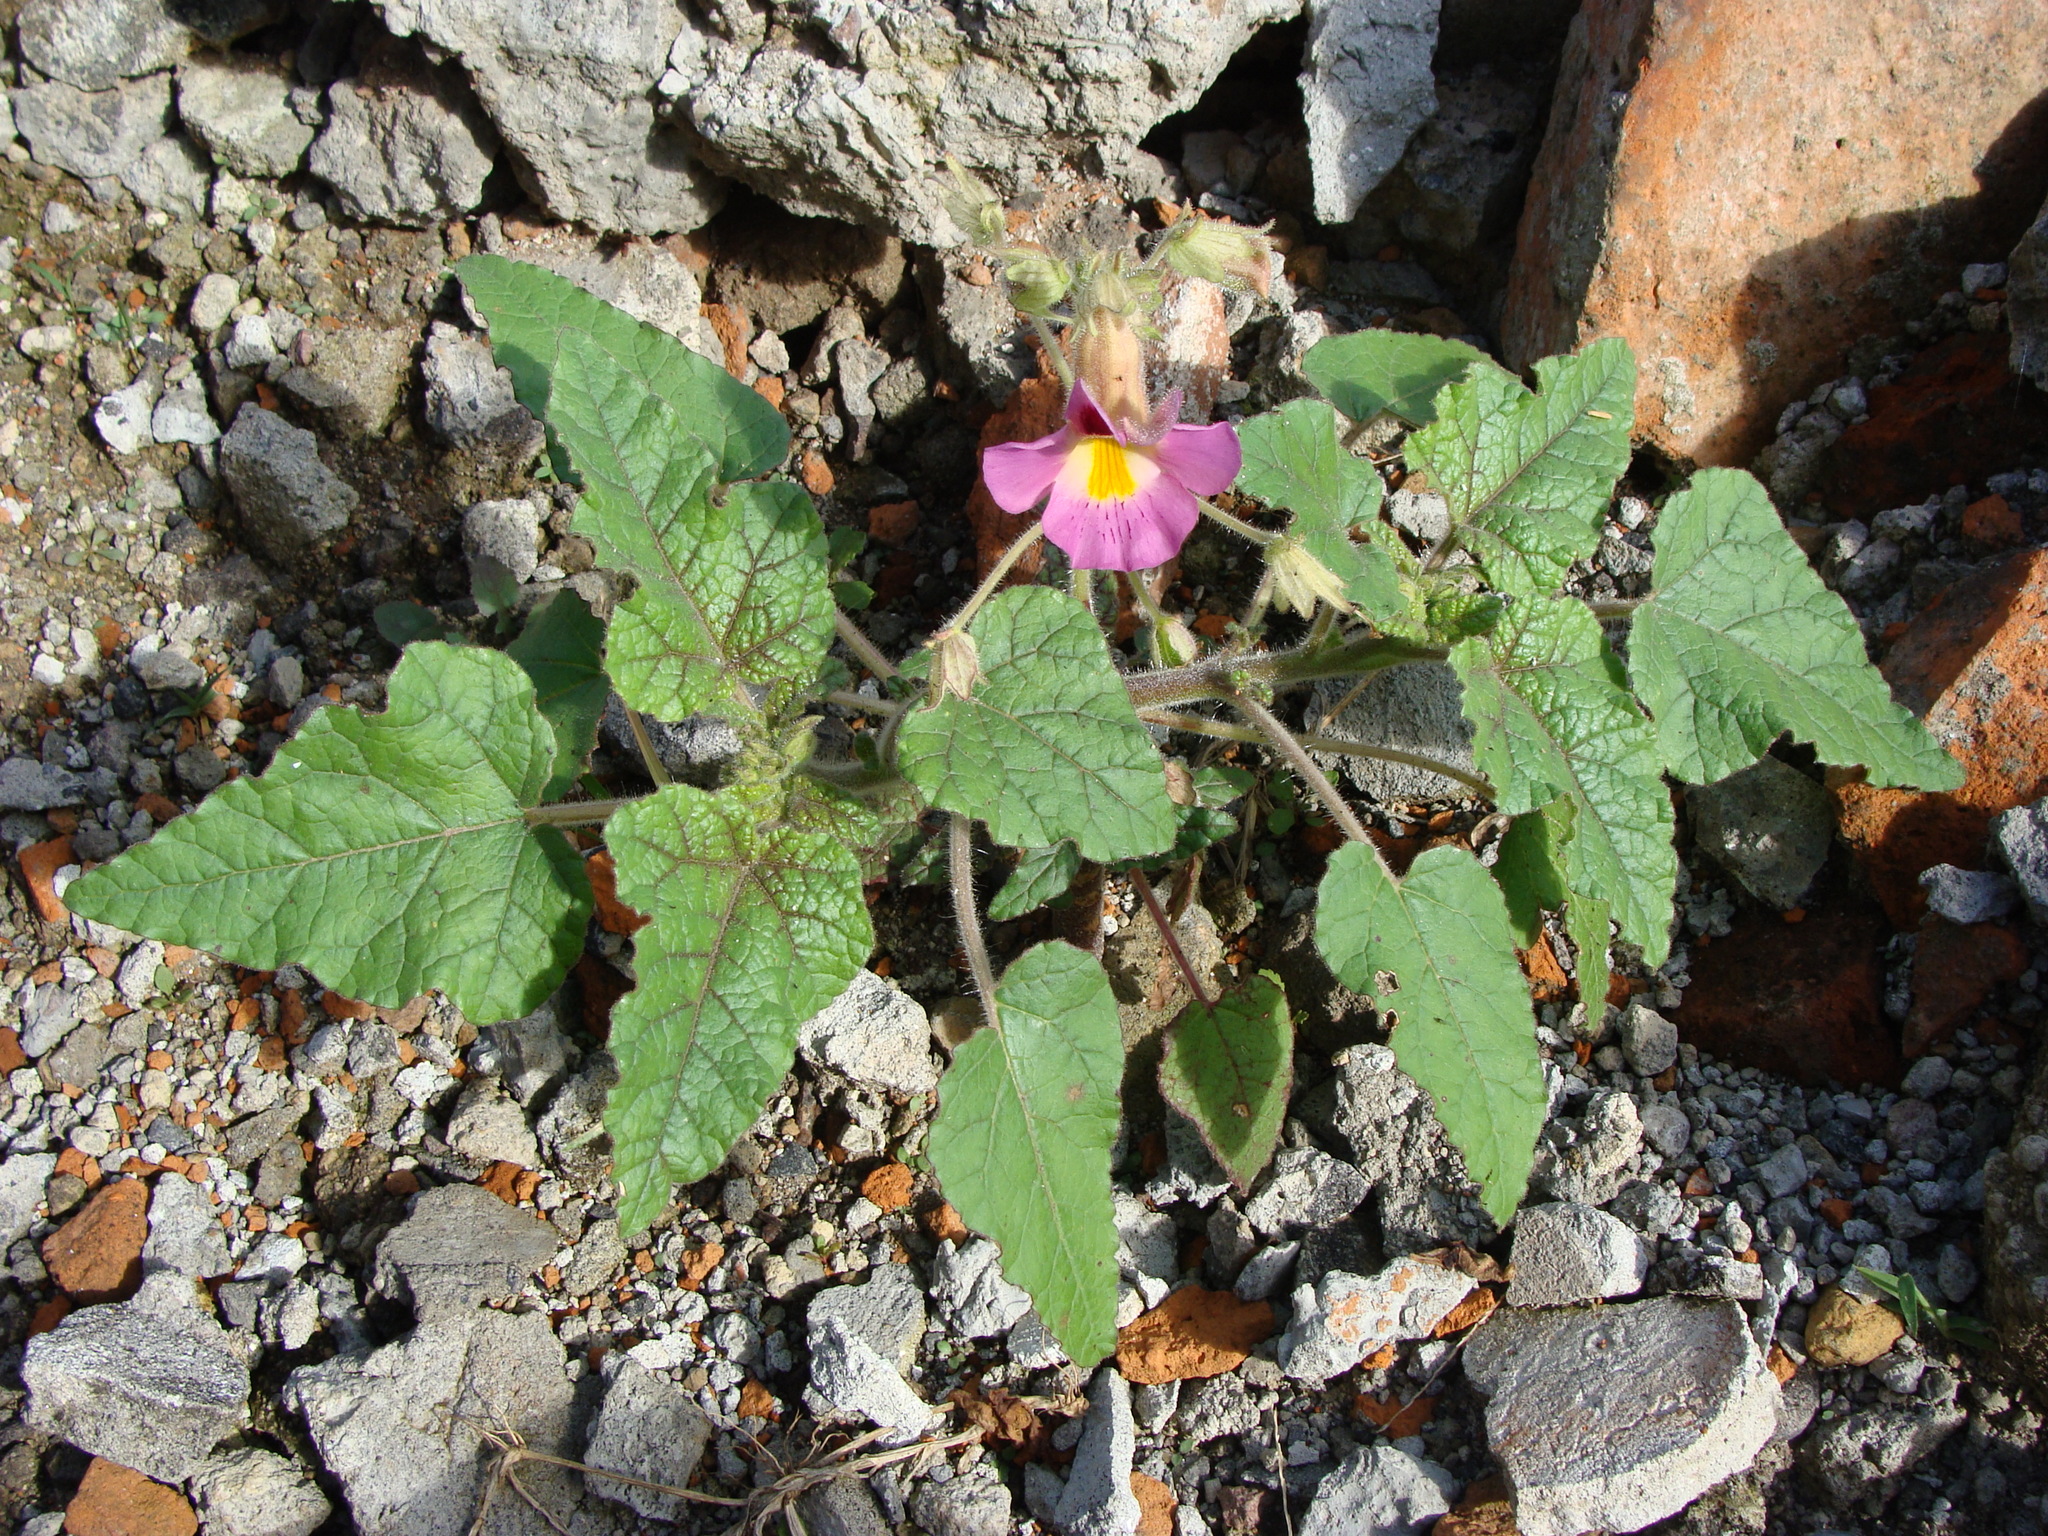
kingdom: Plantae
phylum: Tracheophyta
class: Magnoliopsida
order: Lamiales
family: Martyniaceae
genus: Proboscidea
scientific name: Proboscidea louisianica
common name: Elephant tusks
